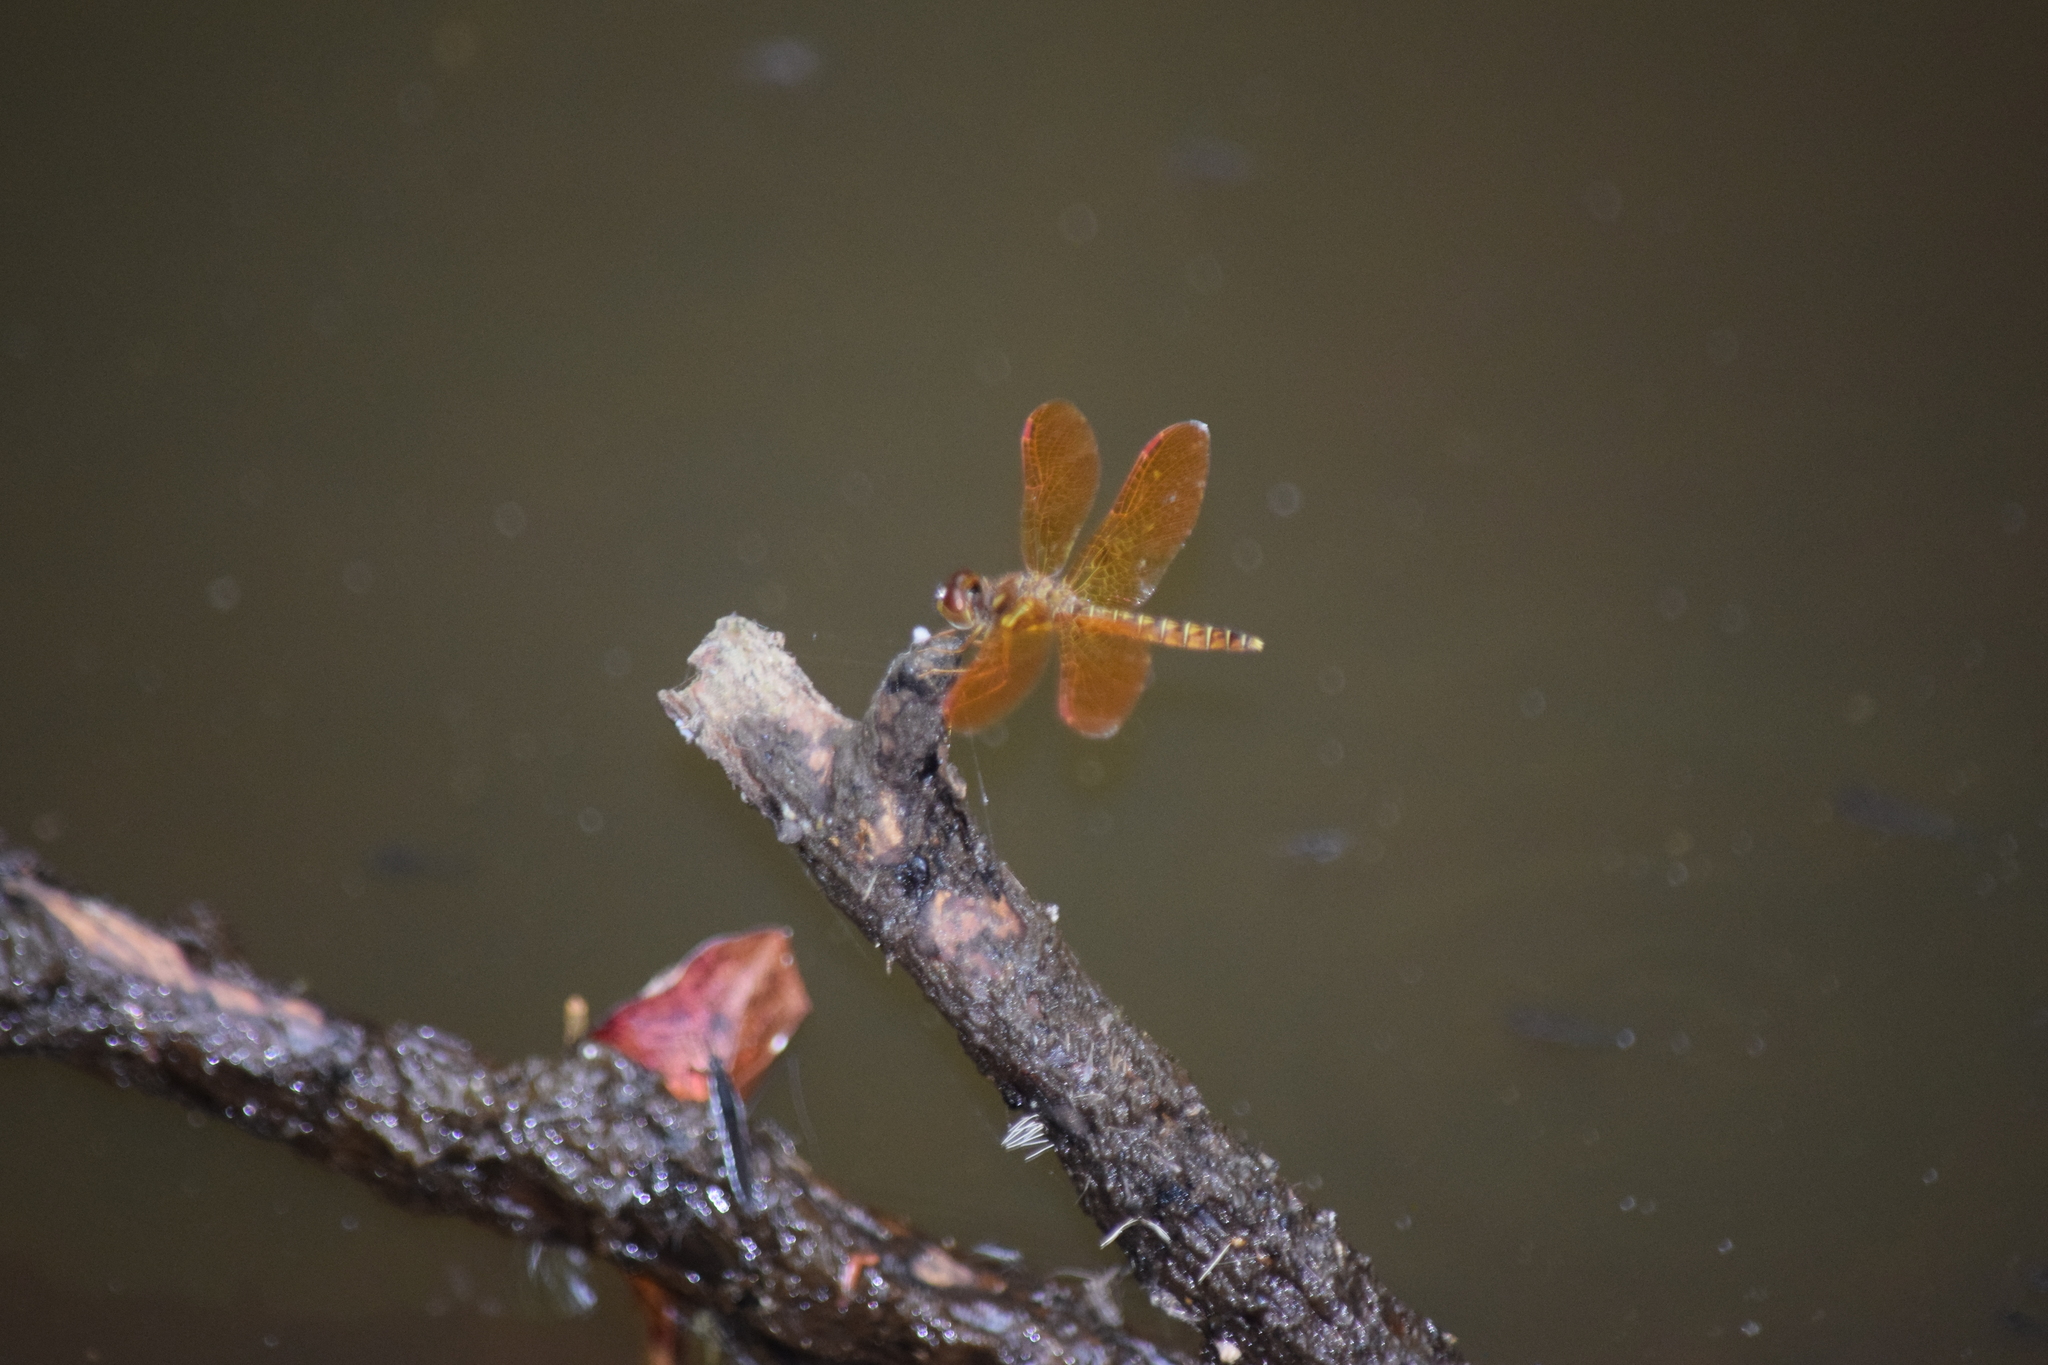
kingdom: Animalia
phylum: Arthropoda
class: Insecta
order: Odonata
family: Libellulidae
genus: Perithemis
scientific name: Perithemis tenera
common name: Eastern amberwing
